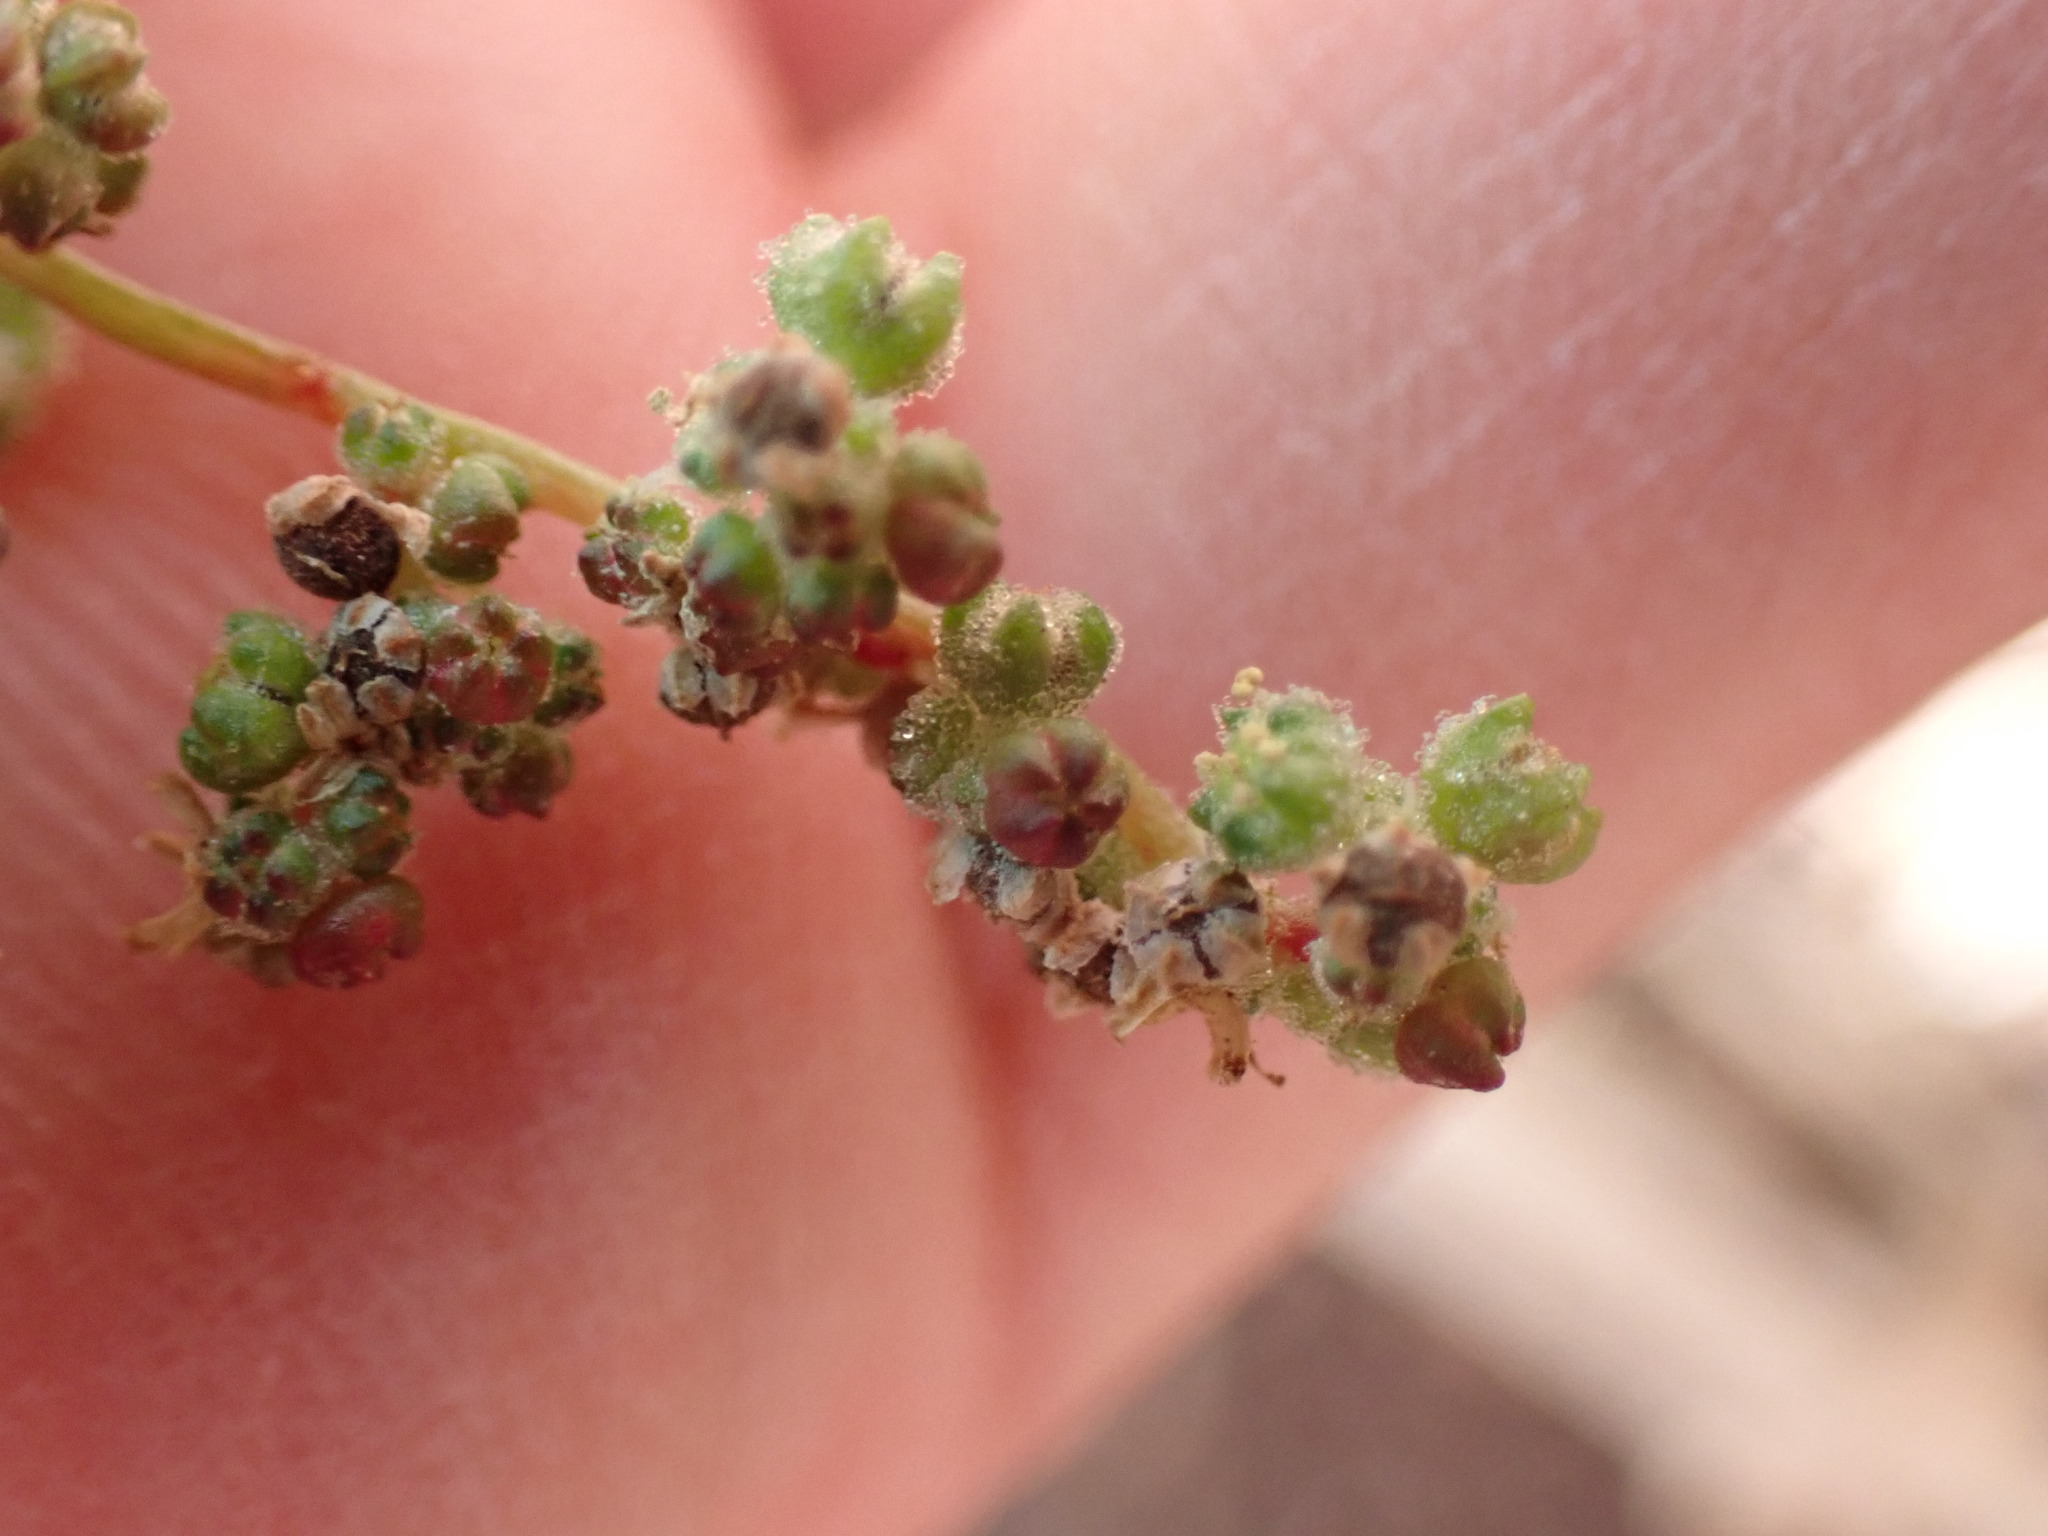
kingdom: Plantae
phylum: Tracheophyta
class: Magnoliopsida
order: Caryophyllales
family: Amaranthaceae
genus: Chenopodiastrum
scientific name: Chenopodiastrum murale
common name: Sowbane
